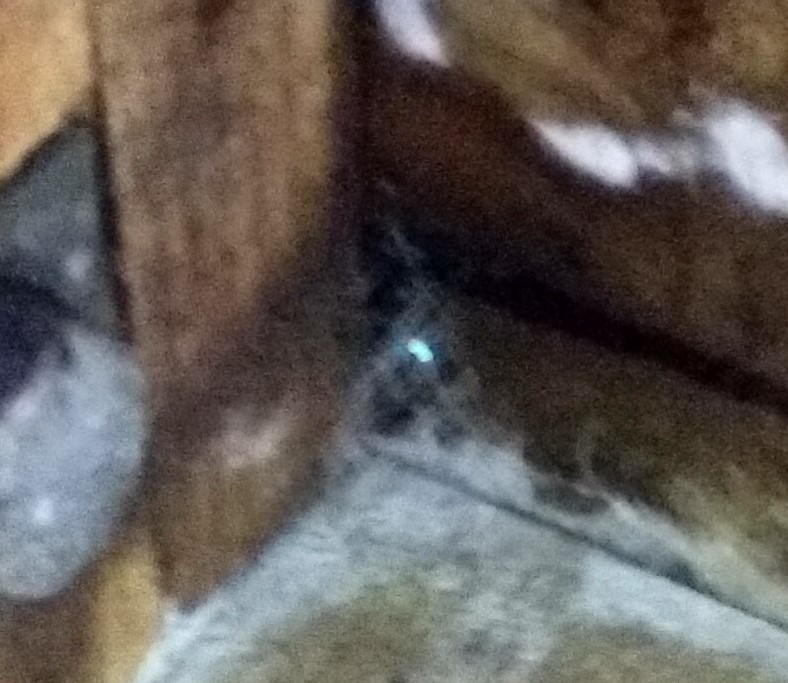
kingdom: Animalia
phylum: Arthropoda
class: Insecta
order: Diptera
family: Keroplatidae
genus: Arachnocampa
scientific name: Arachnocampa luminosa
